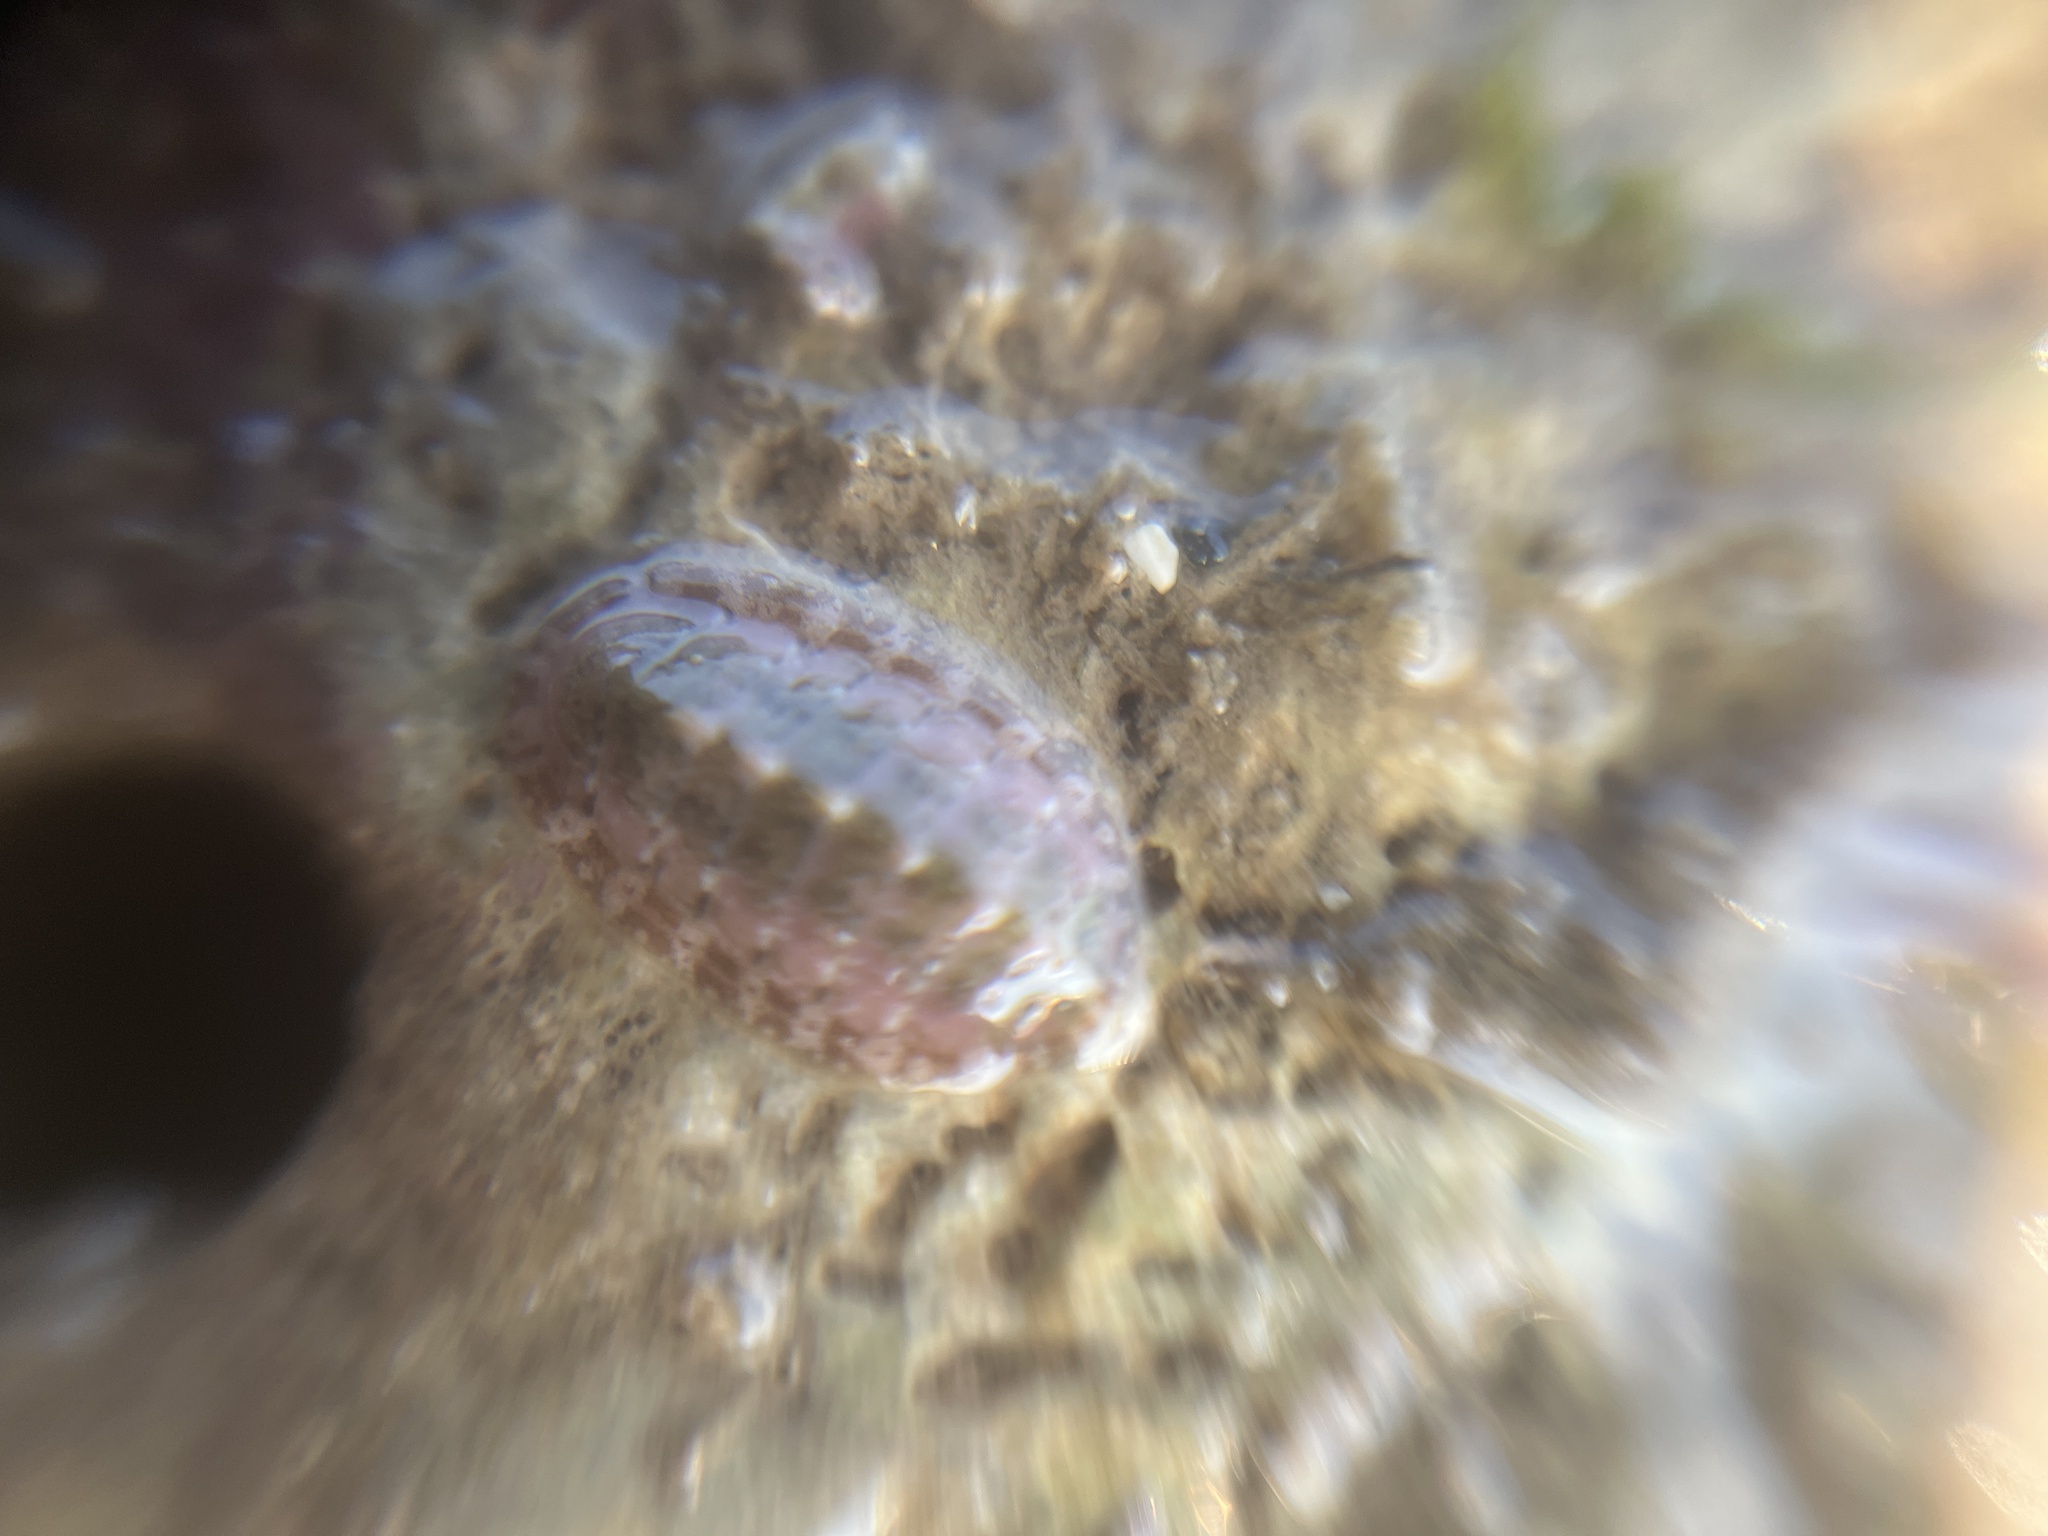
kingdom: Animalia
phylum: Mollusca
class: Polyplacophora
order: Chitonida
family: Tonicellidae
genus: Lepidochitona
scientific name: Lepidochitona cinerea
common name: Cinereous chiton
